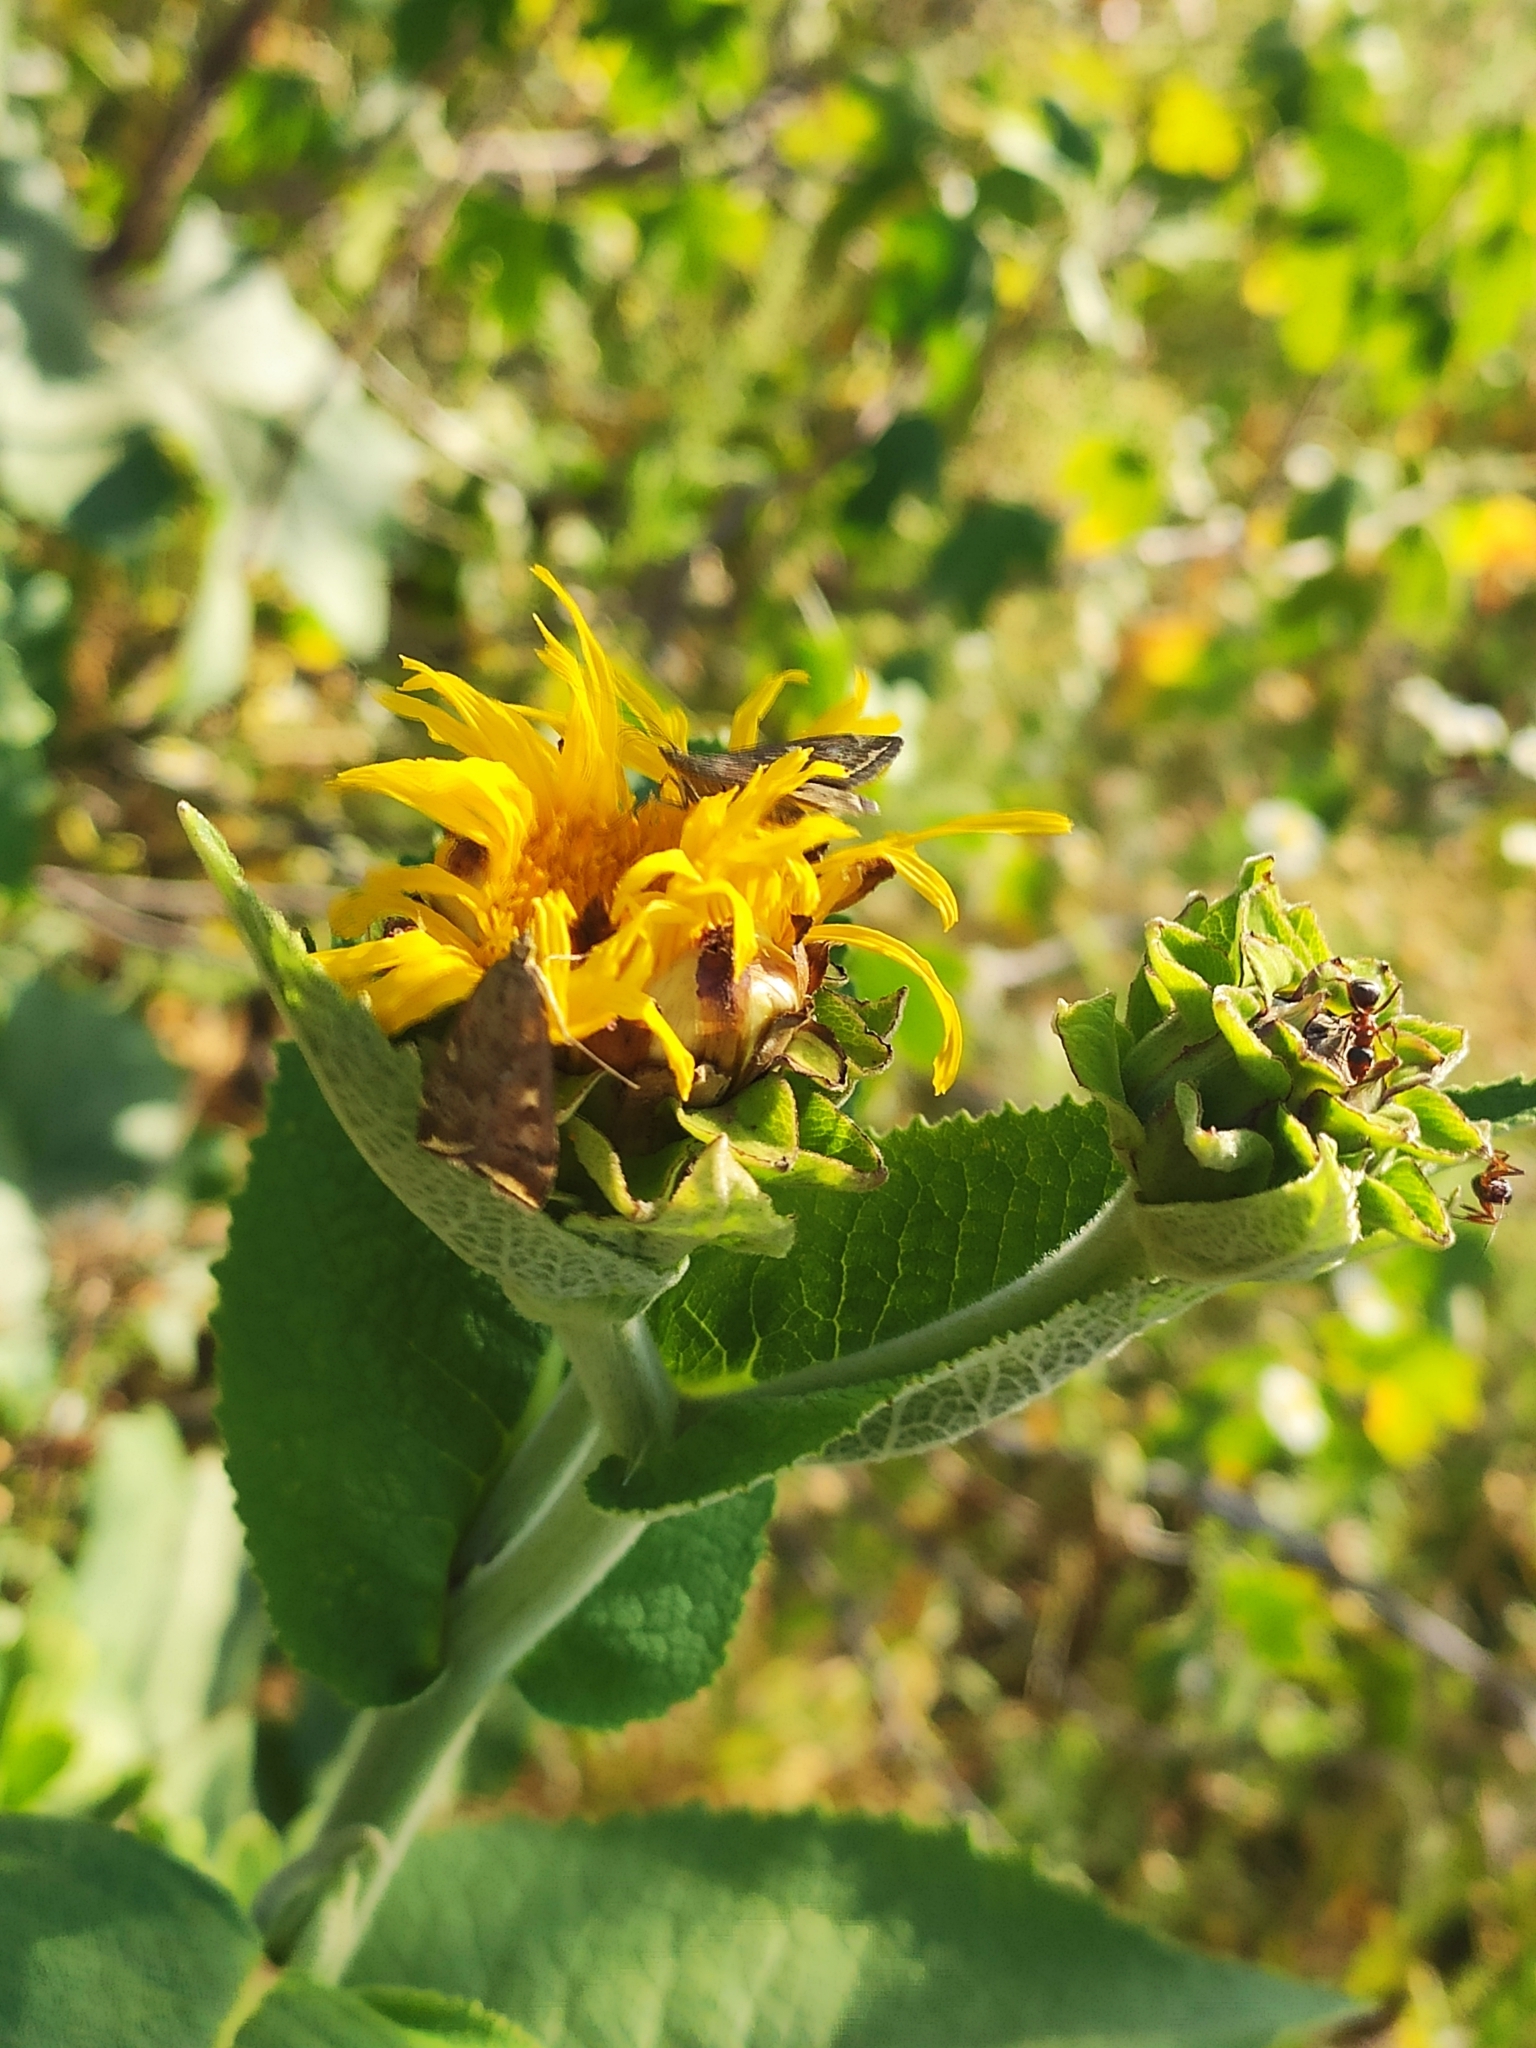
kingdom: Plantae
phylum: Tracheophyta
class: Magnoliopsida
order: Asterales
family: Asteraceae
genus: Inula
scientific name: Inula helenium
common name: Elecampane
